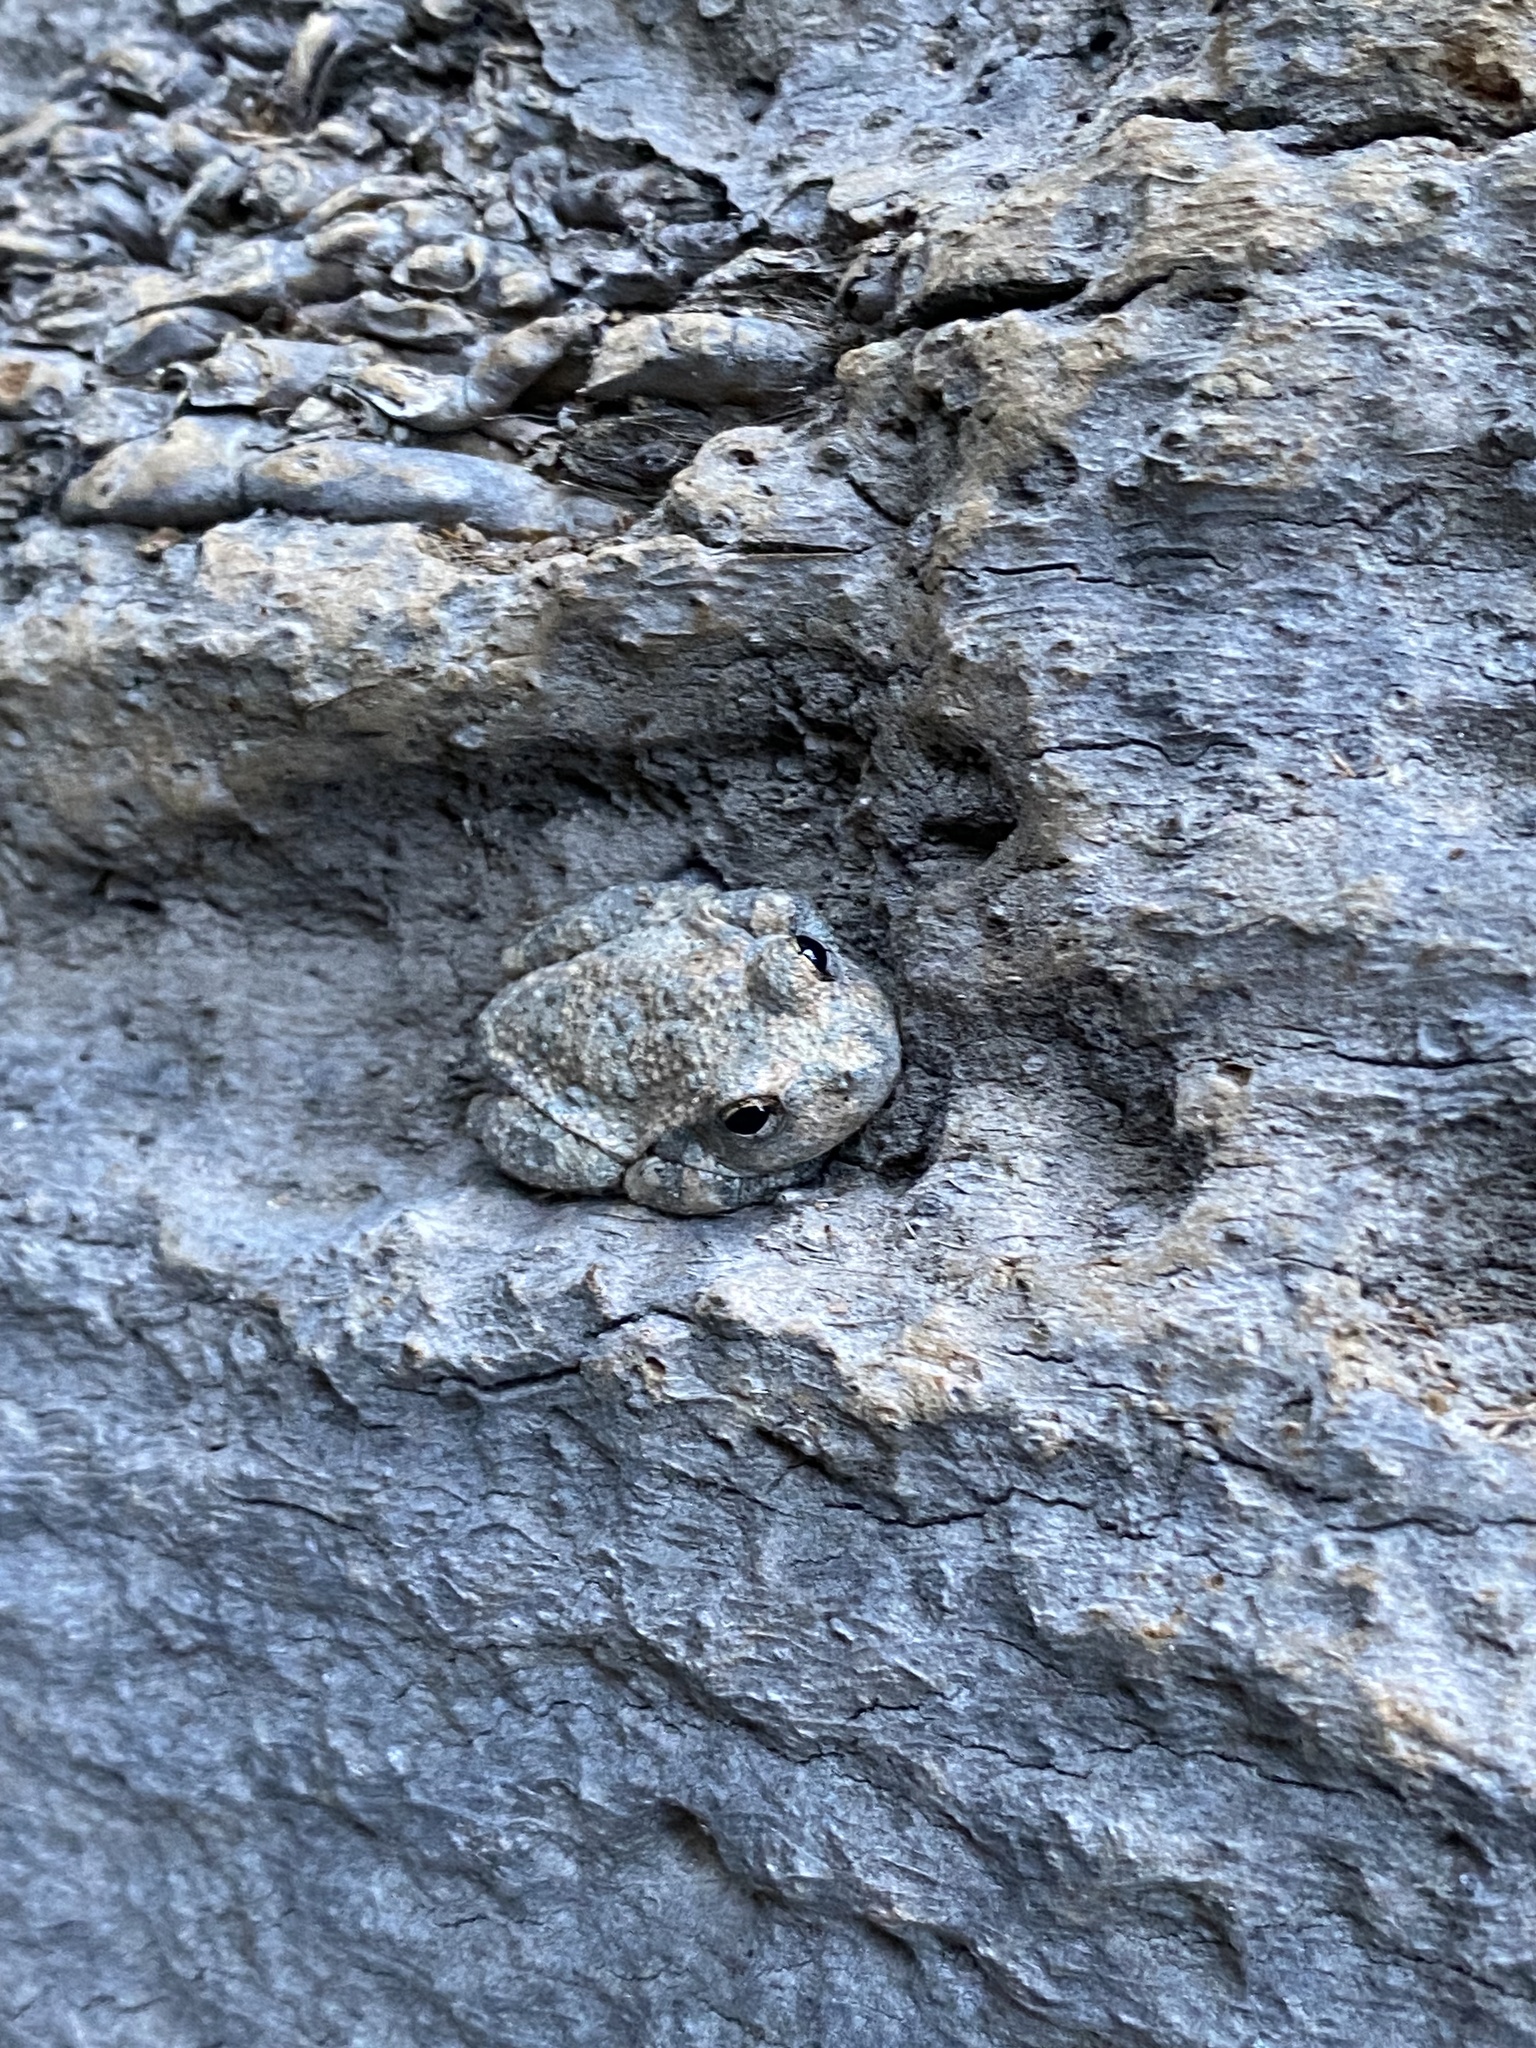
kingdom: Animalia
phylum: Chordata
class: Amphibia
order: Anura
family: Hylidae
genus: Dryophytes
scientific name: Dryophytes arenicolor
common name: Canyon treefrog
